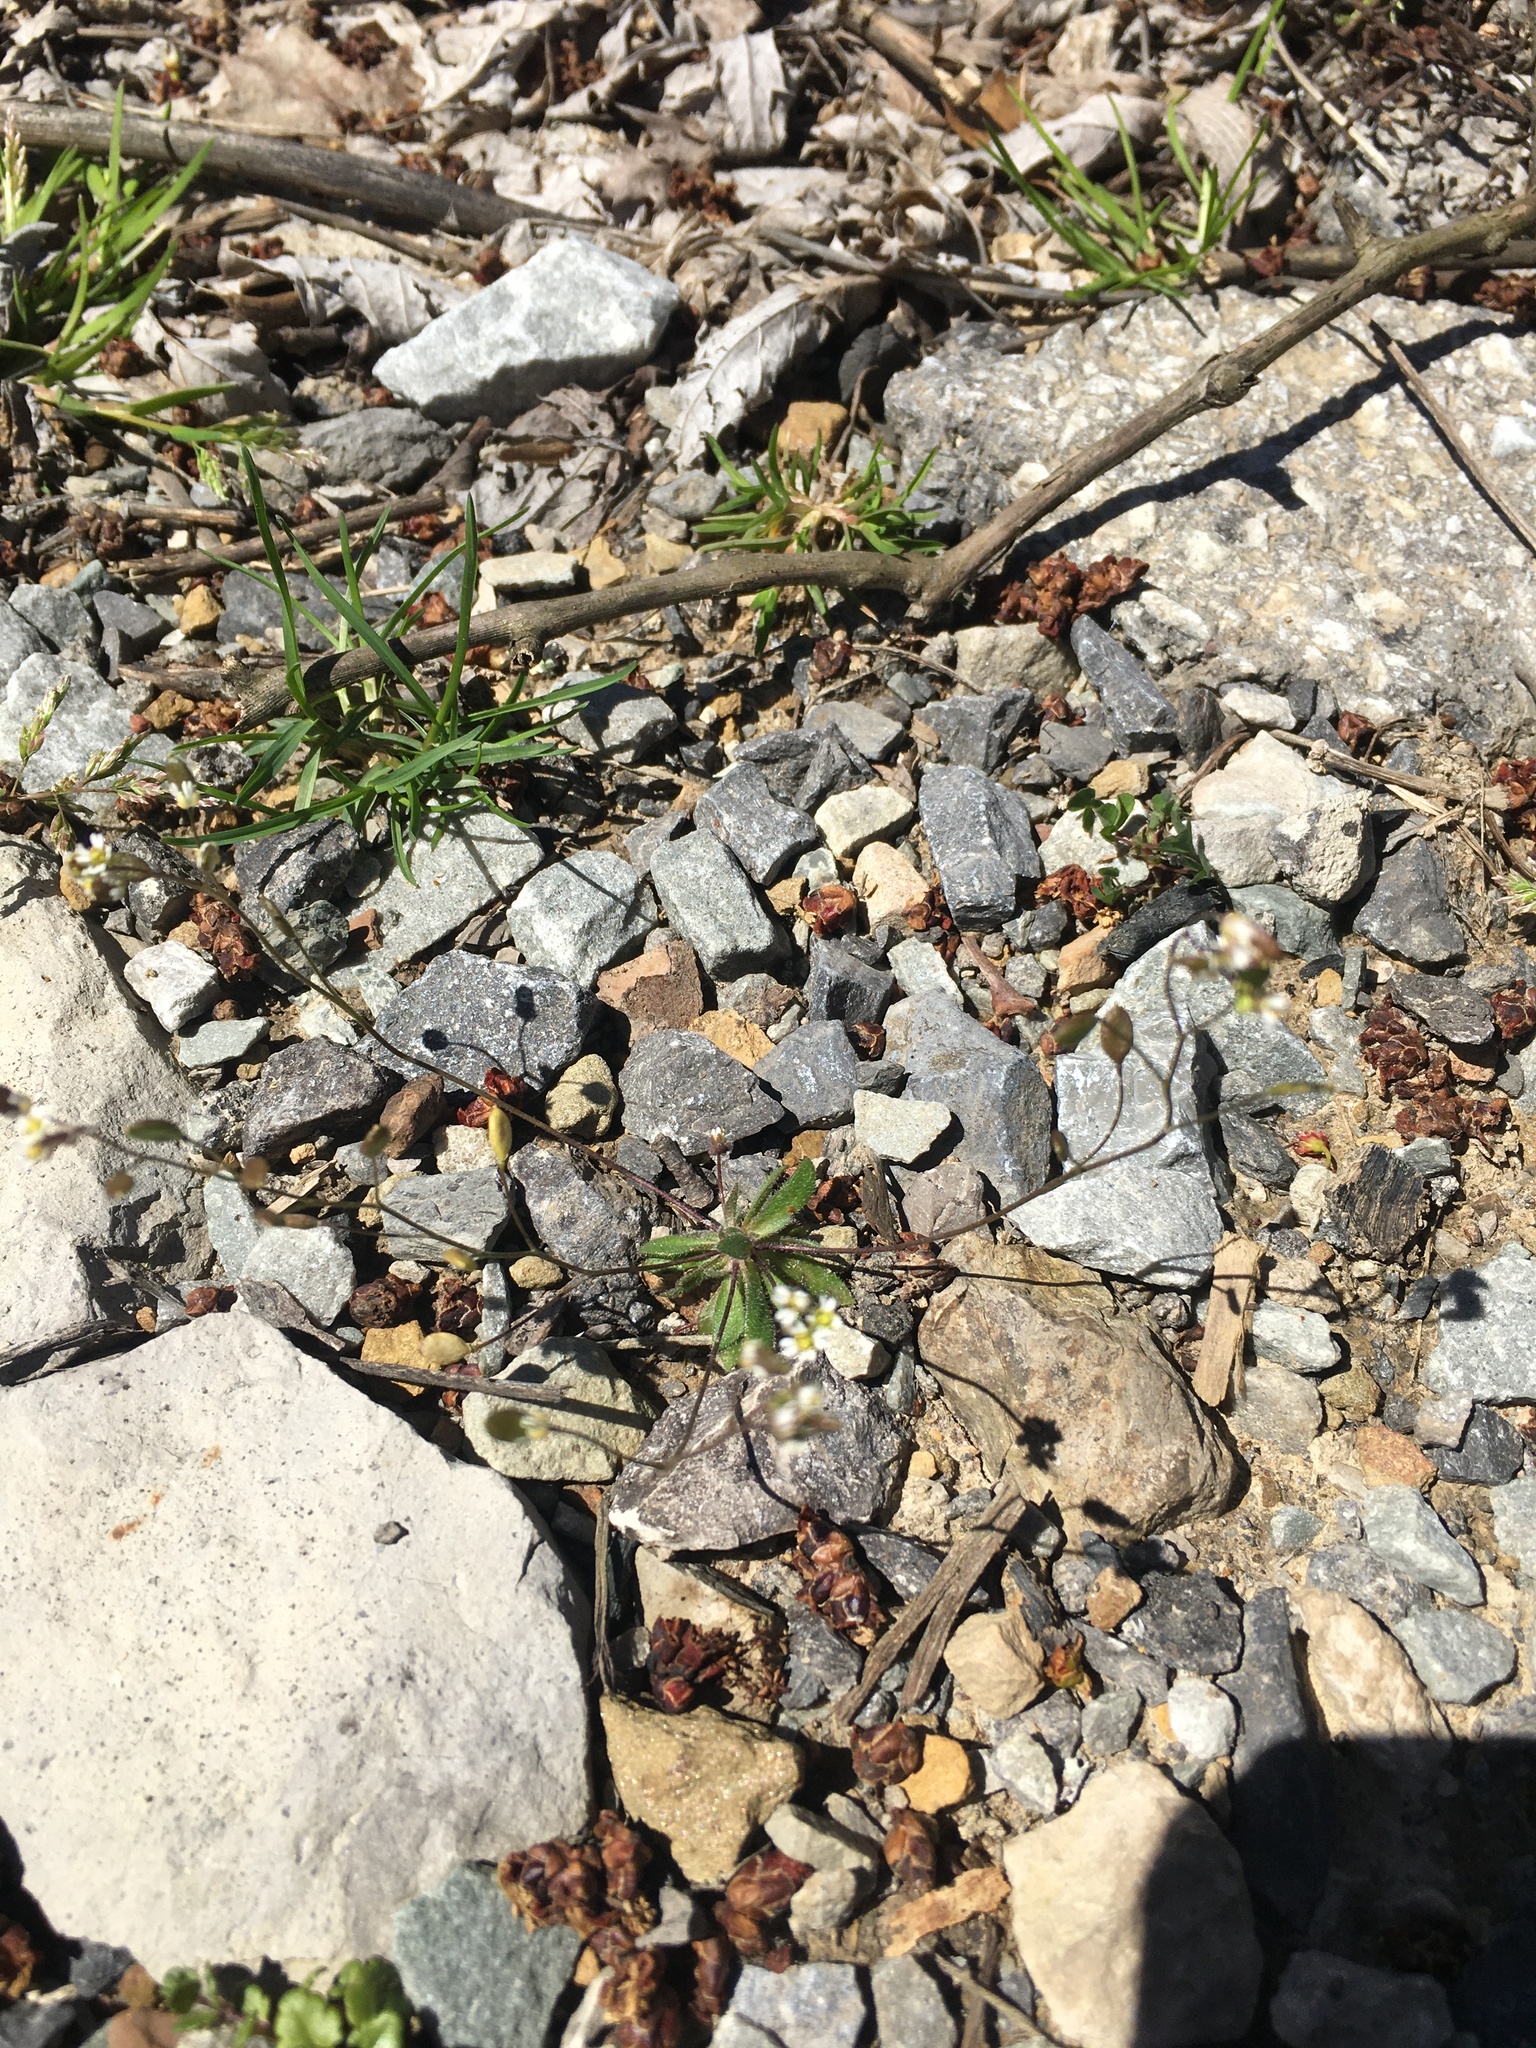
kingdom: Plantae
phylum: Tracheophyta
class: Magnoliopsida
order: Brassicales
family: Brassicaceae
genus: Draba
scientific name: Draba verna
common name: Spring draba
